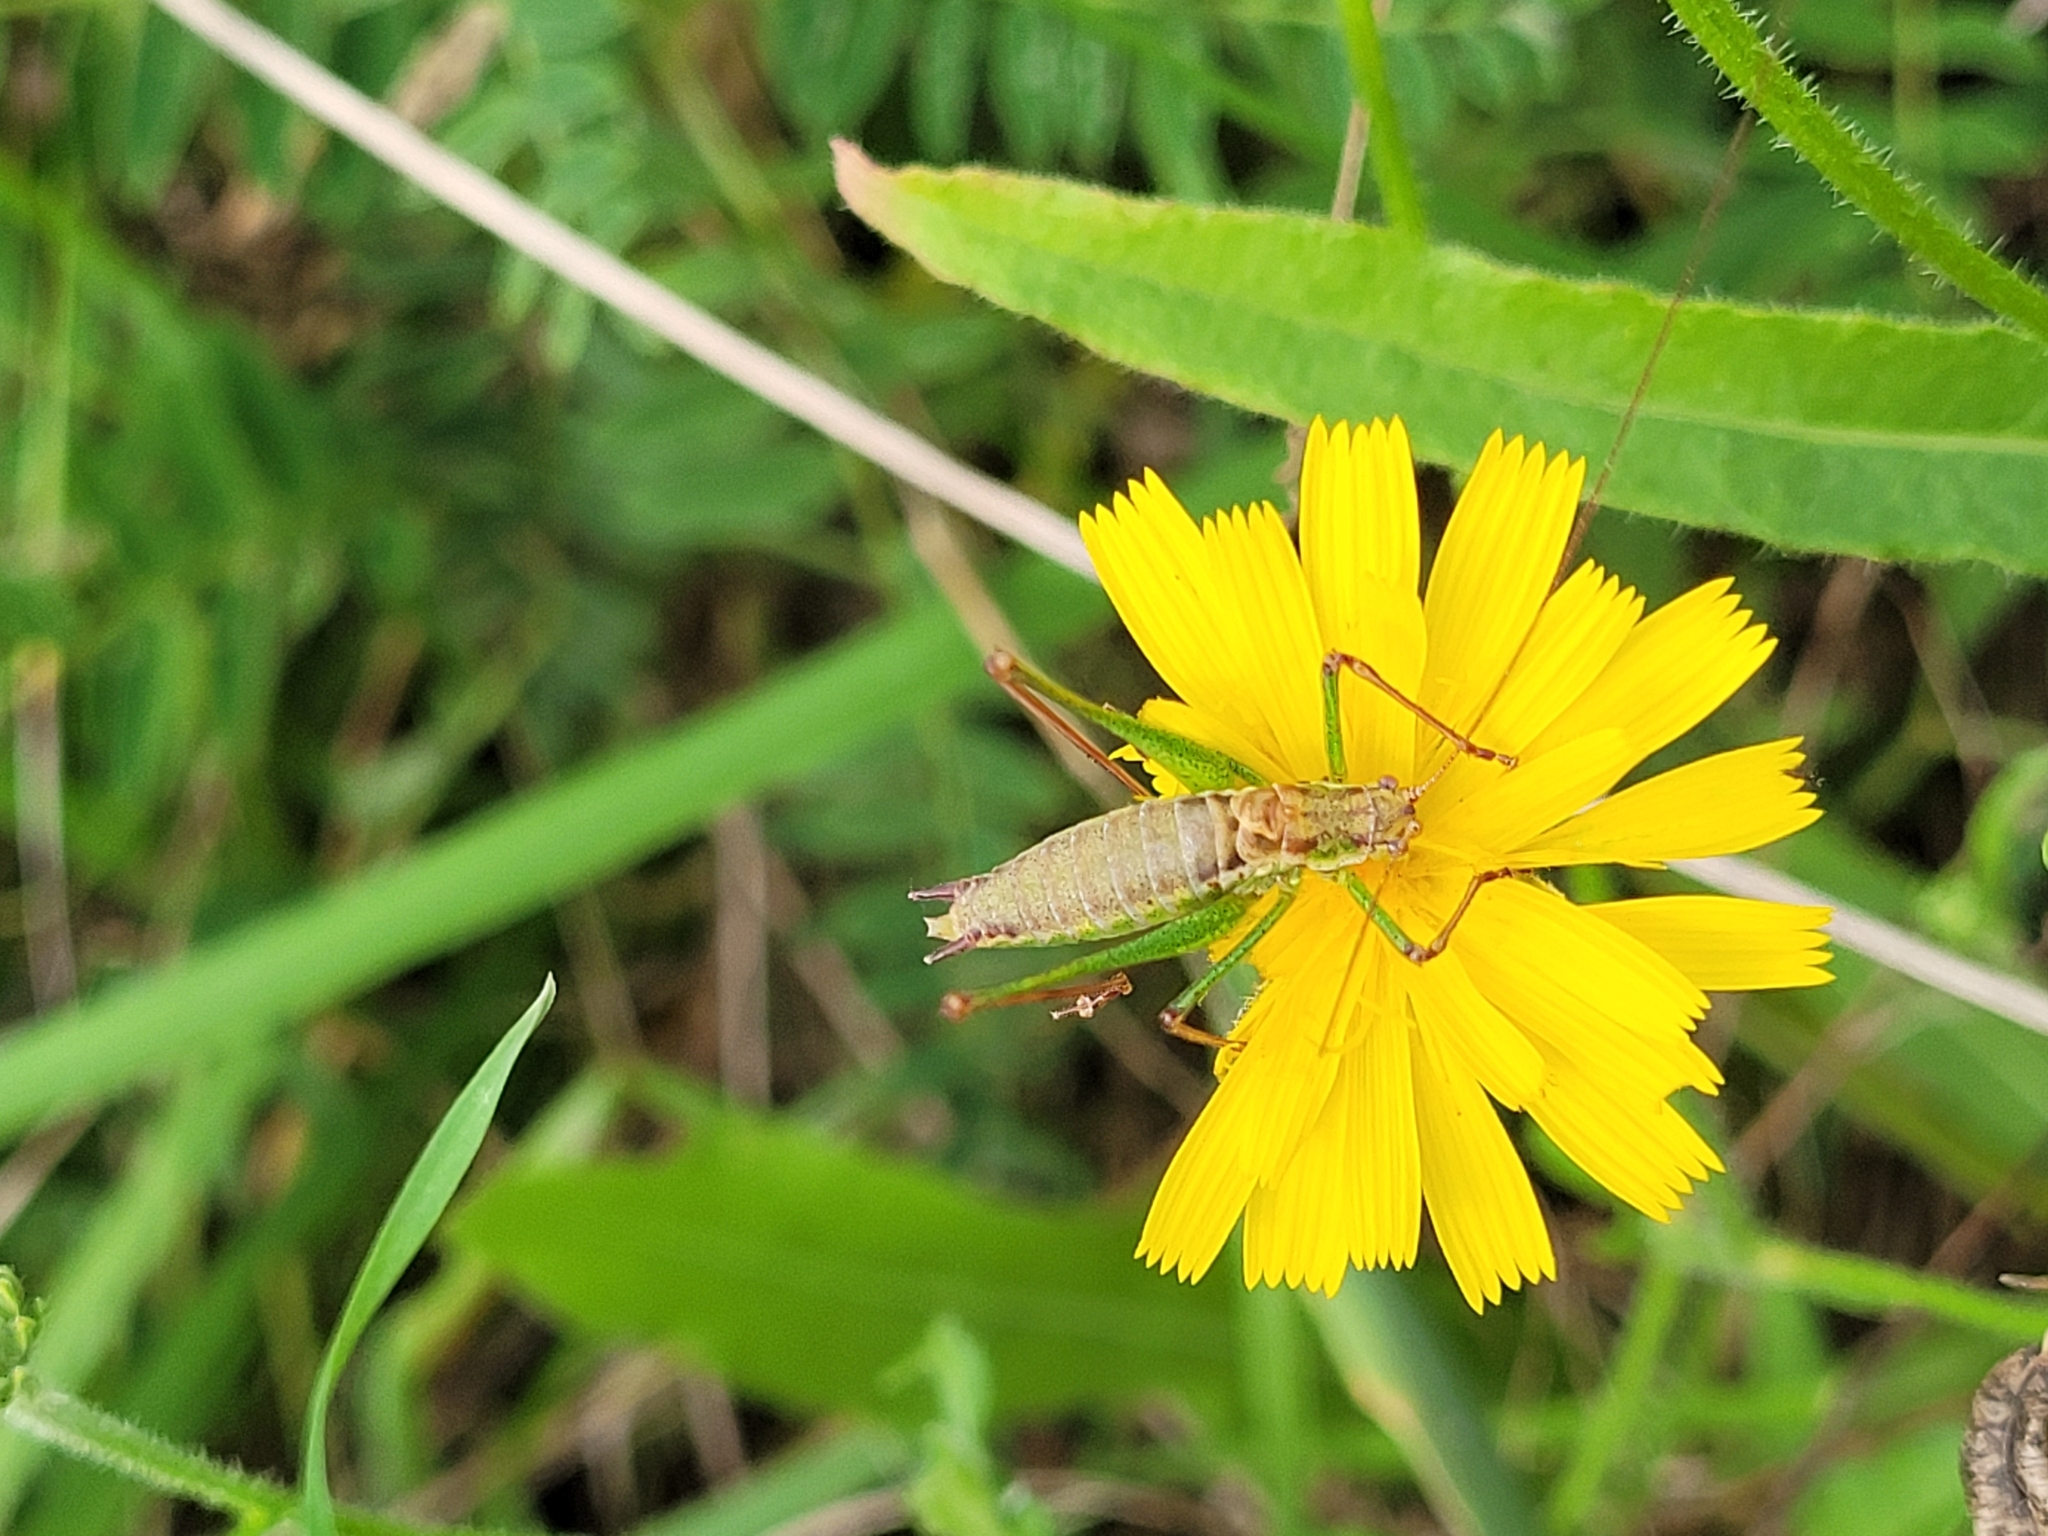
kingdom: Animalia
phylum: Arthropoda
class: Insecta
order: Orthoptera
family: Tettigoniidae
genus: Leptophyes
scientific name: Leptophyes albovittata
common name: Striped bush-cricket
